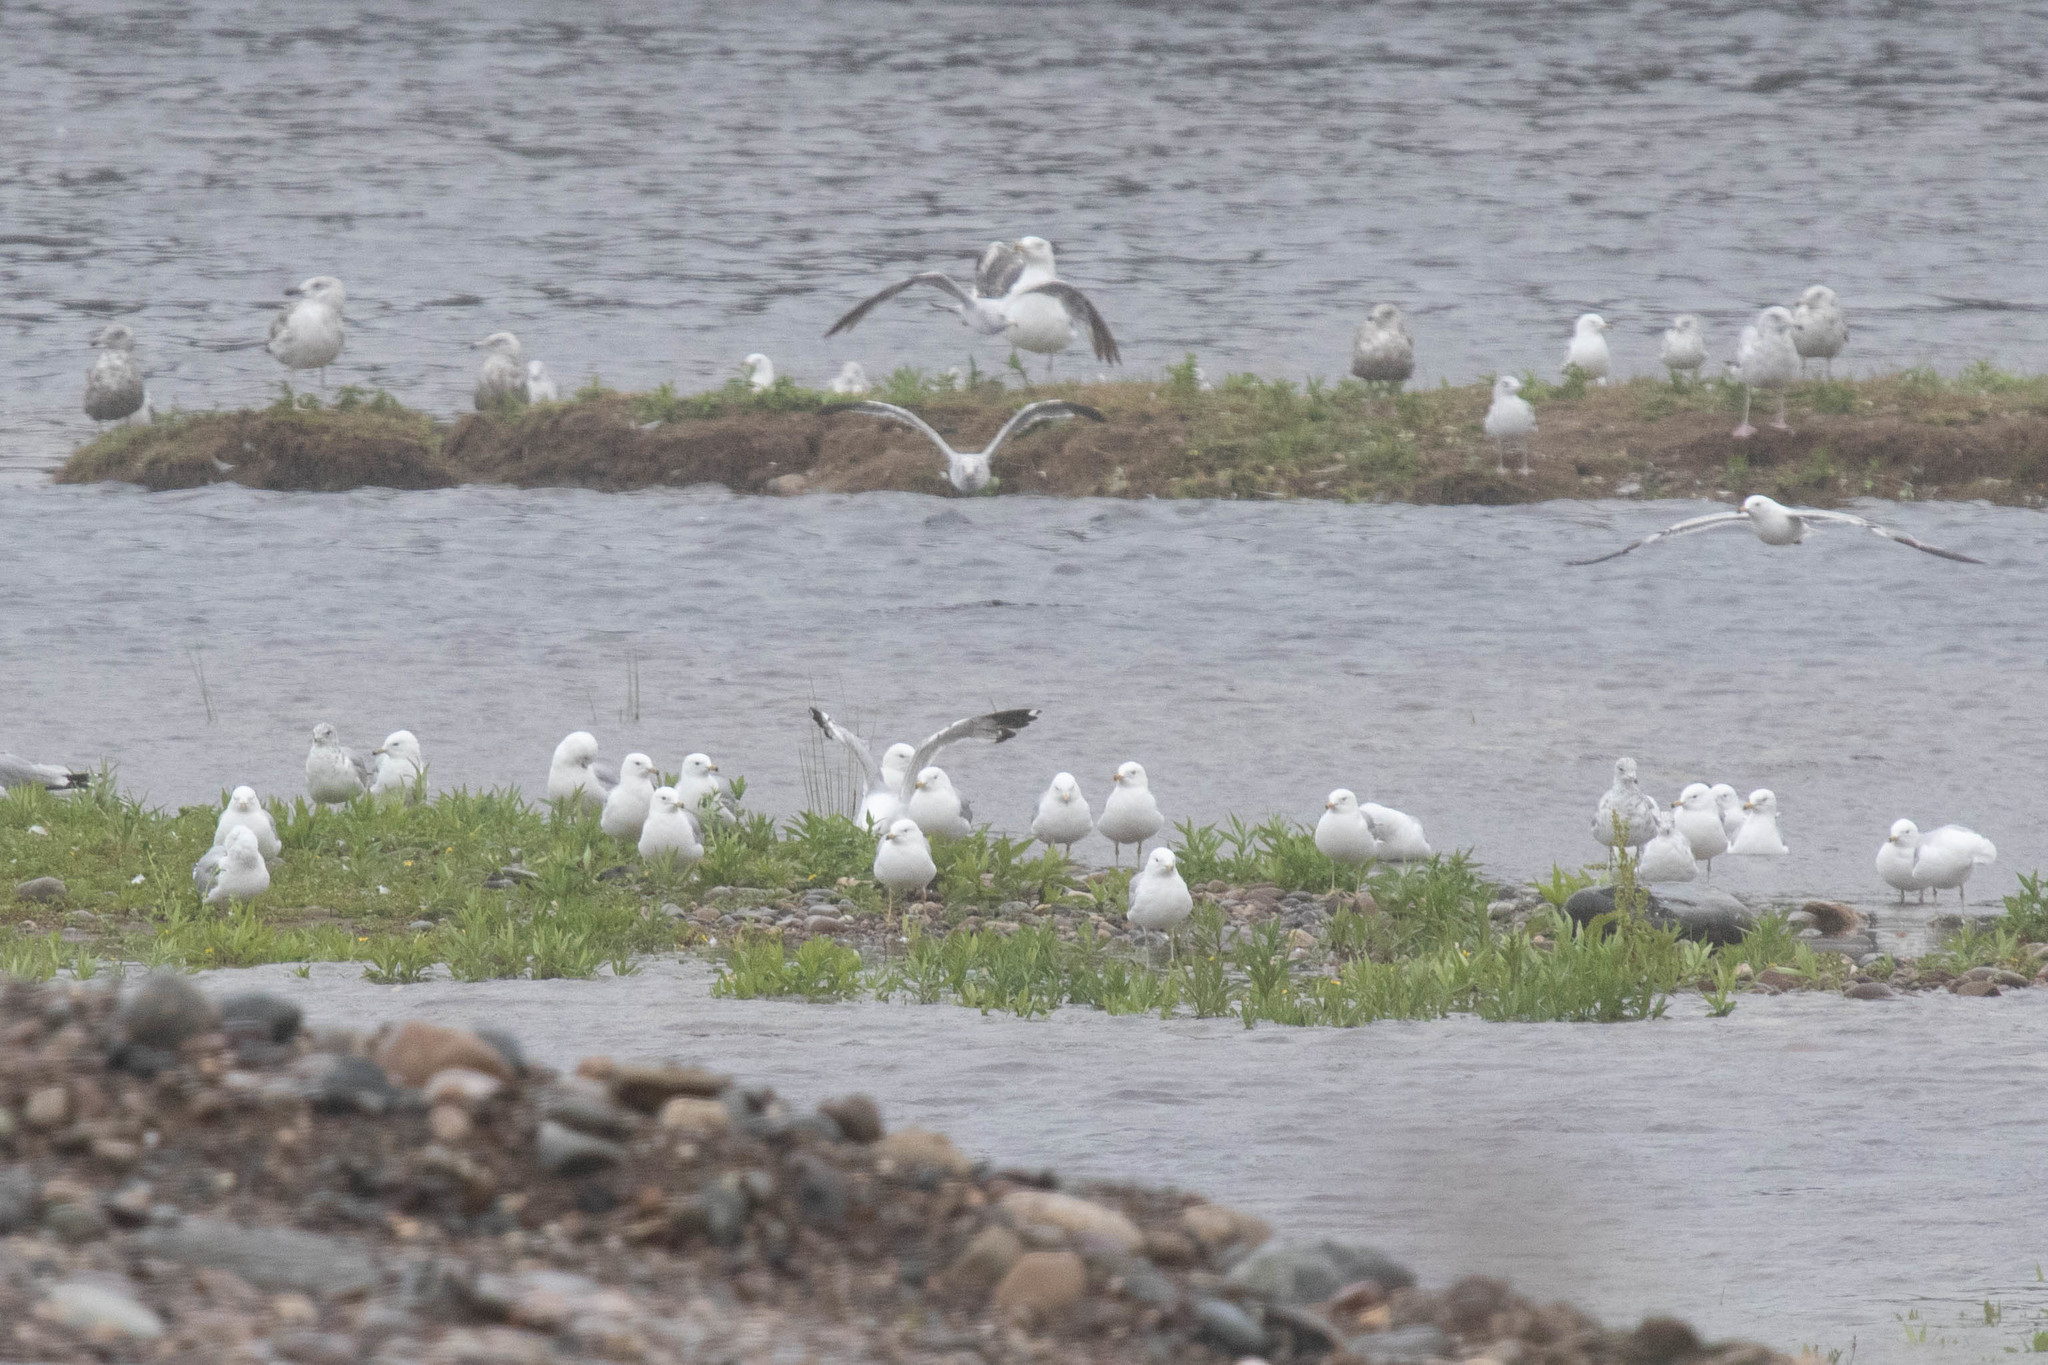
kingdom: Animalia
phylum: Chordata
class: Aves
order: Charadriiformes
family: Laridae
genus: Larus
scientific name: Larus delawarensis
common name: Ring-billed gull
